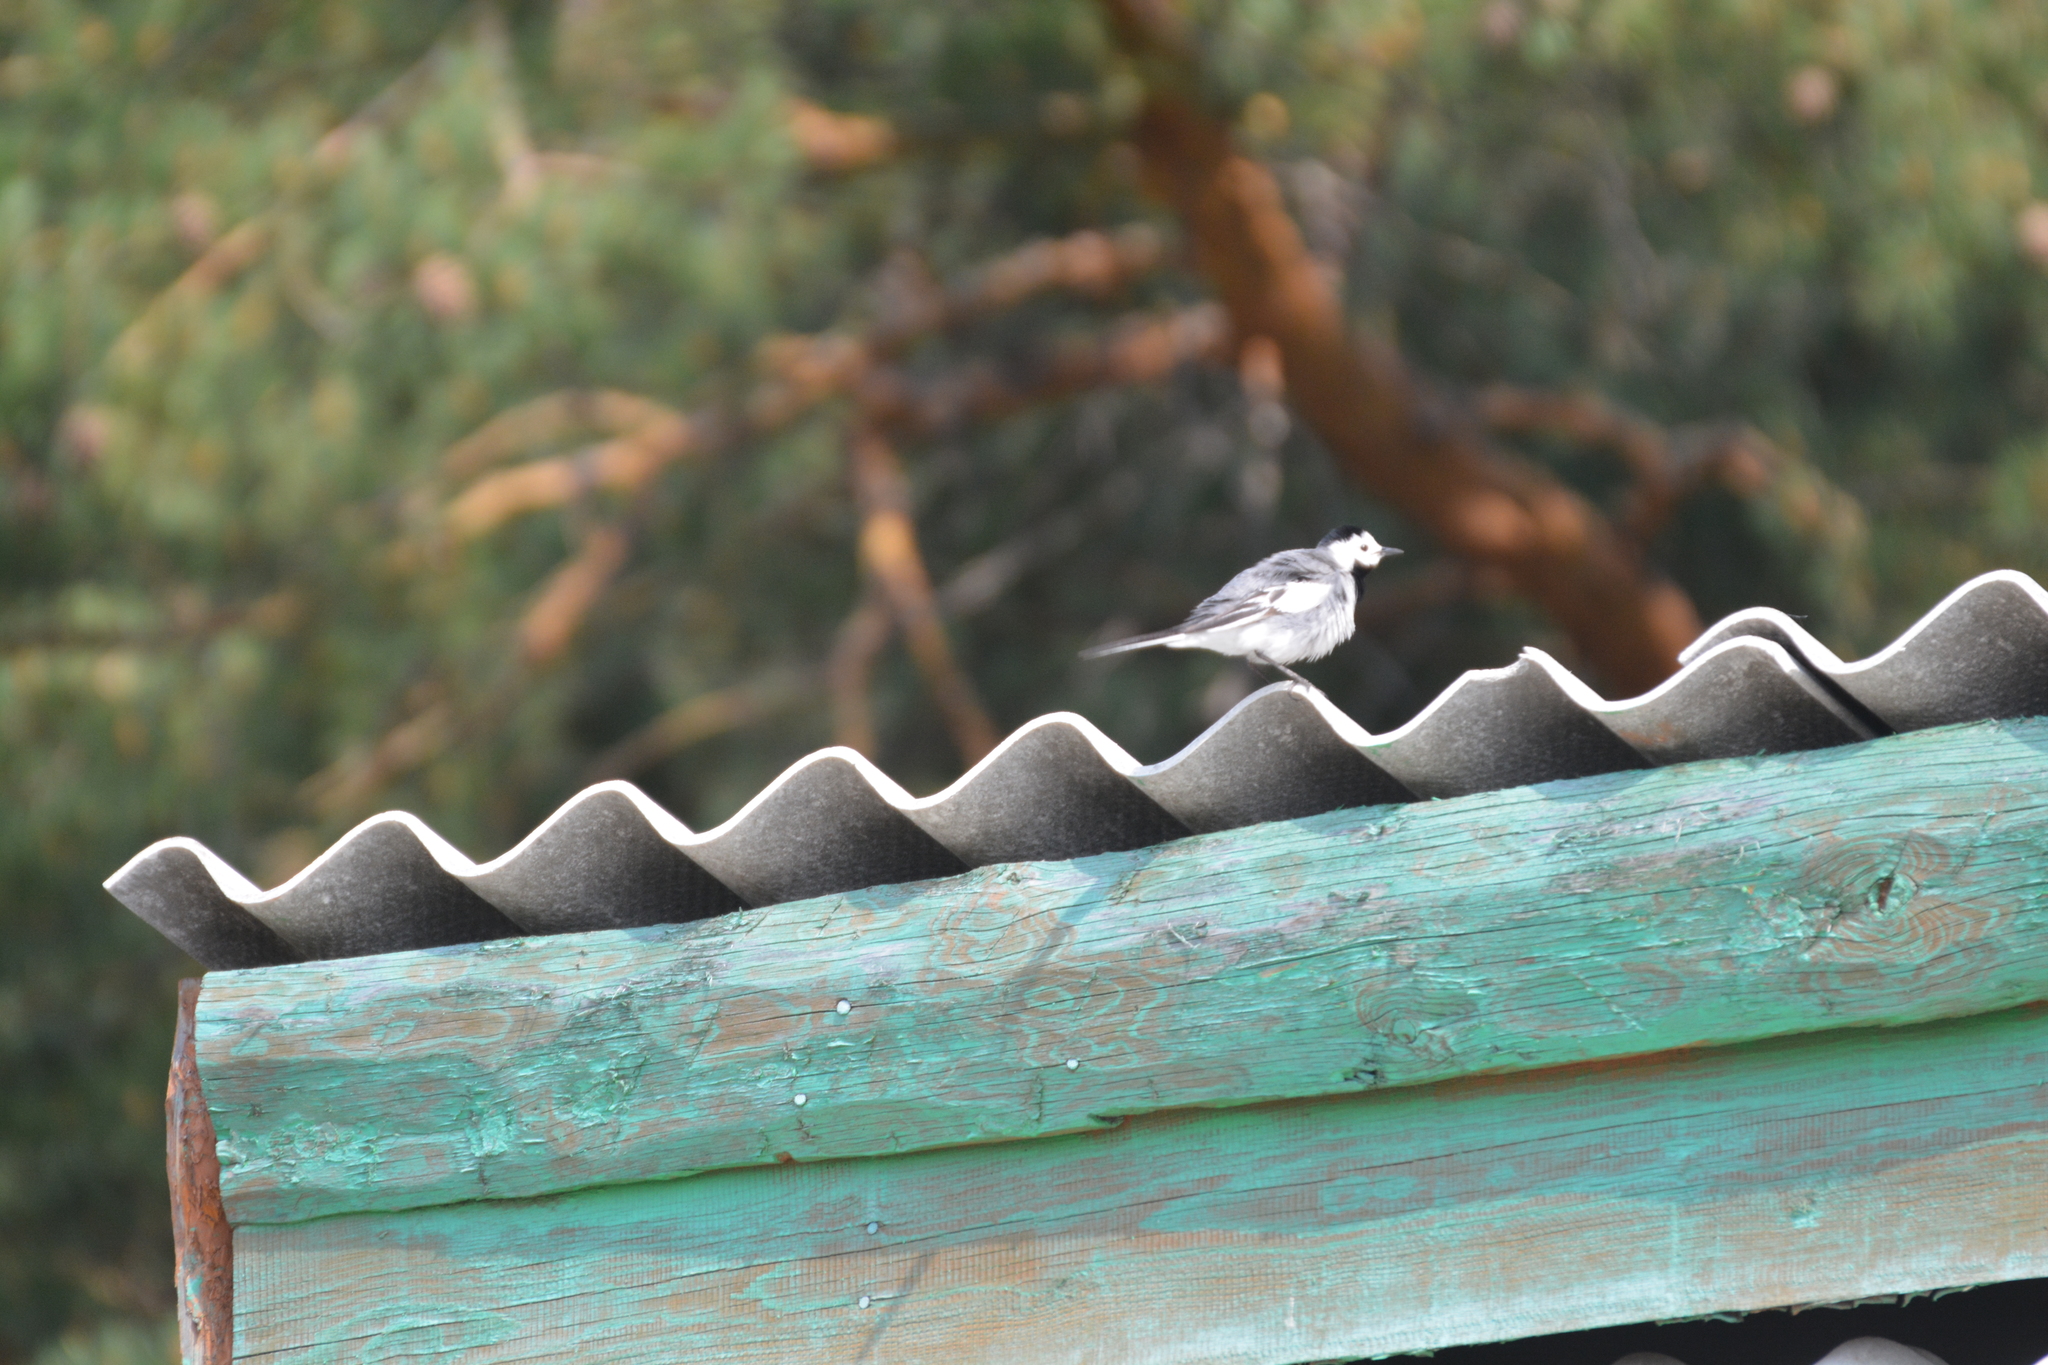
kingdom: Animalia
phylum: Chordata
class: Aves
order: Passeriformes
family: Motacillidae
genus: Motacilla
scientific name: Motacilla alba
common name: White wagtail
